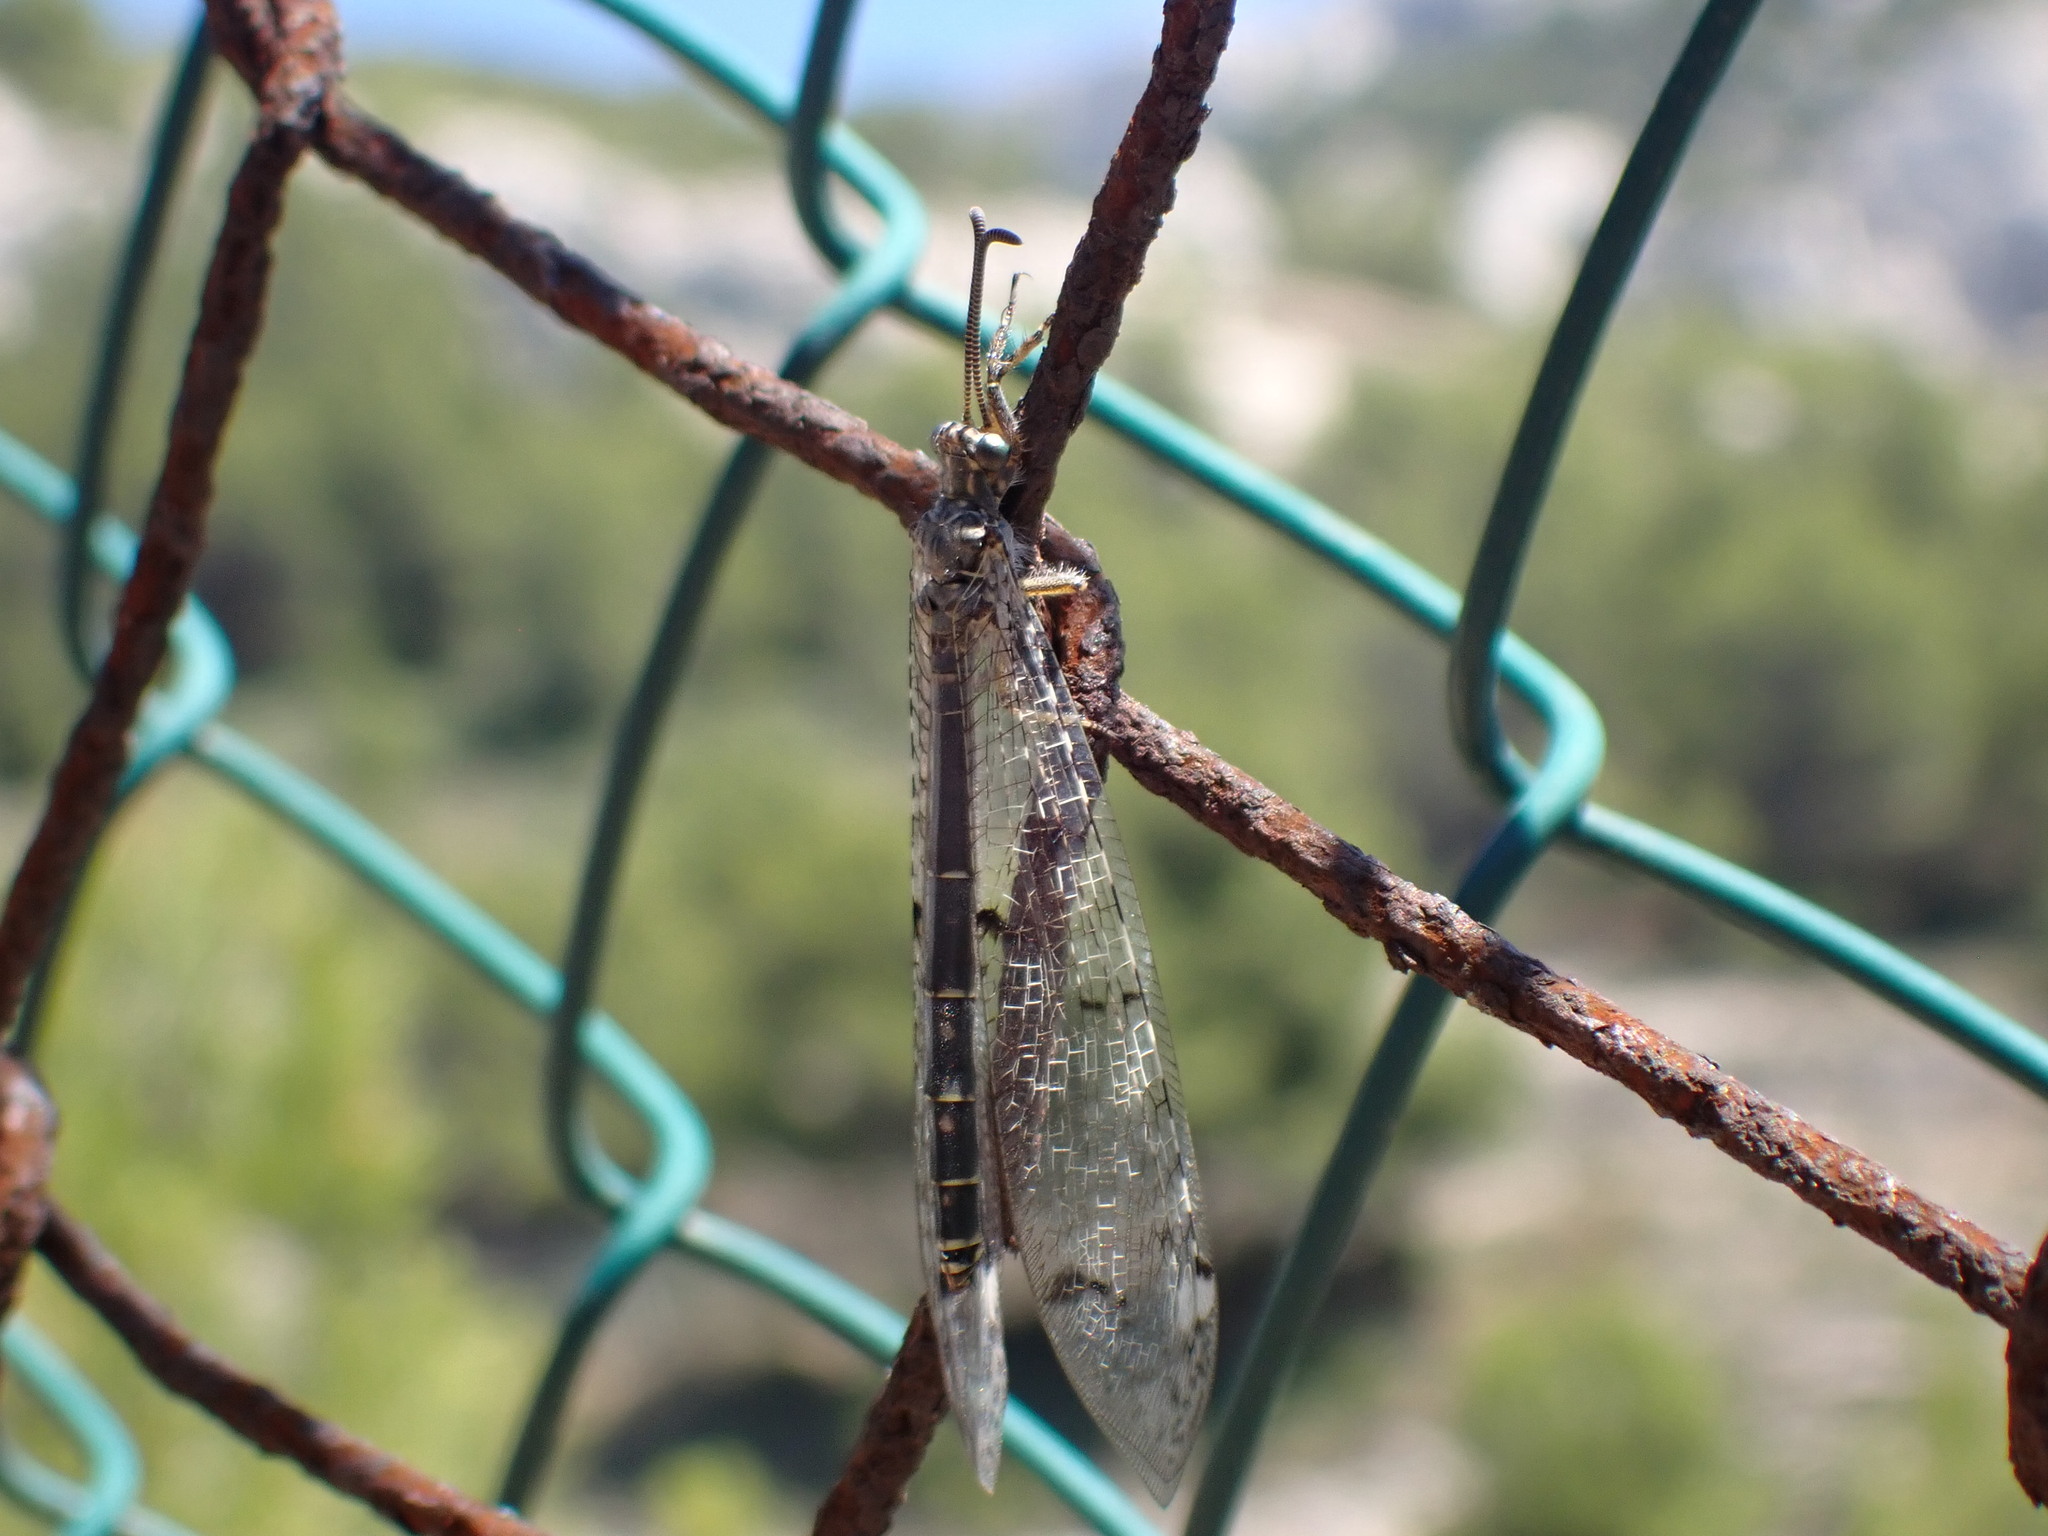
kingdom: Animalia
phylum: Arthropoda
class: Insecta
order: Neuroptera
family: Myrmeleontidae
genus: Distoleon
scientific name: Distoleon tetragrammicus
